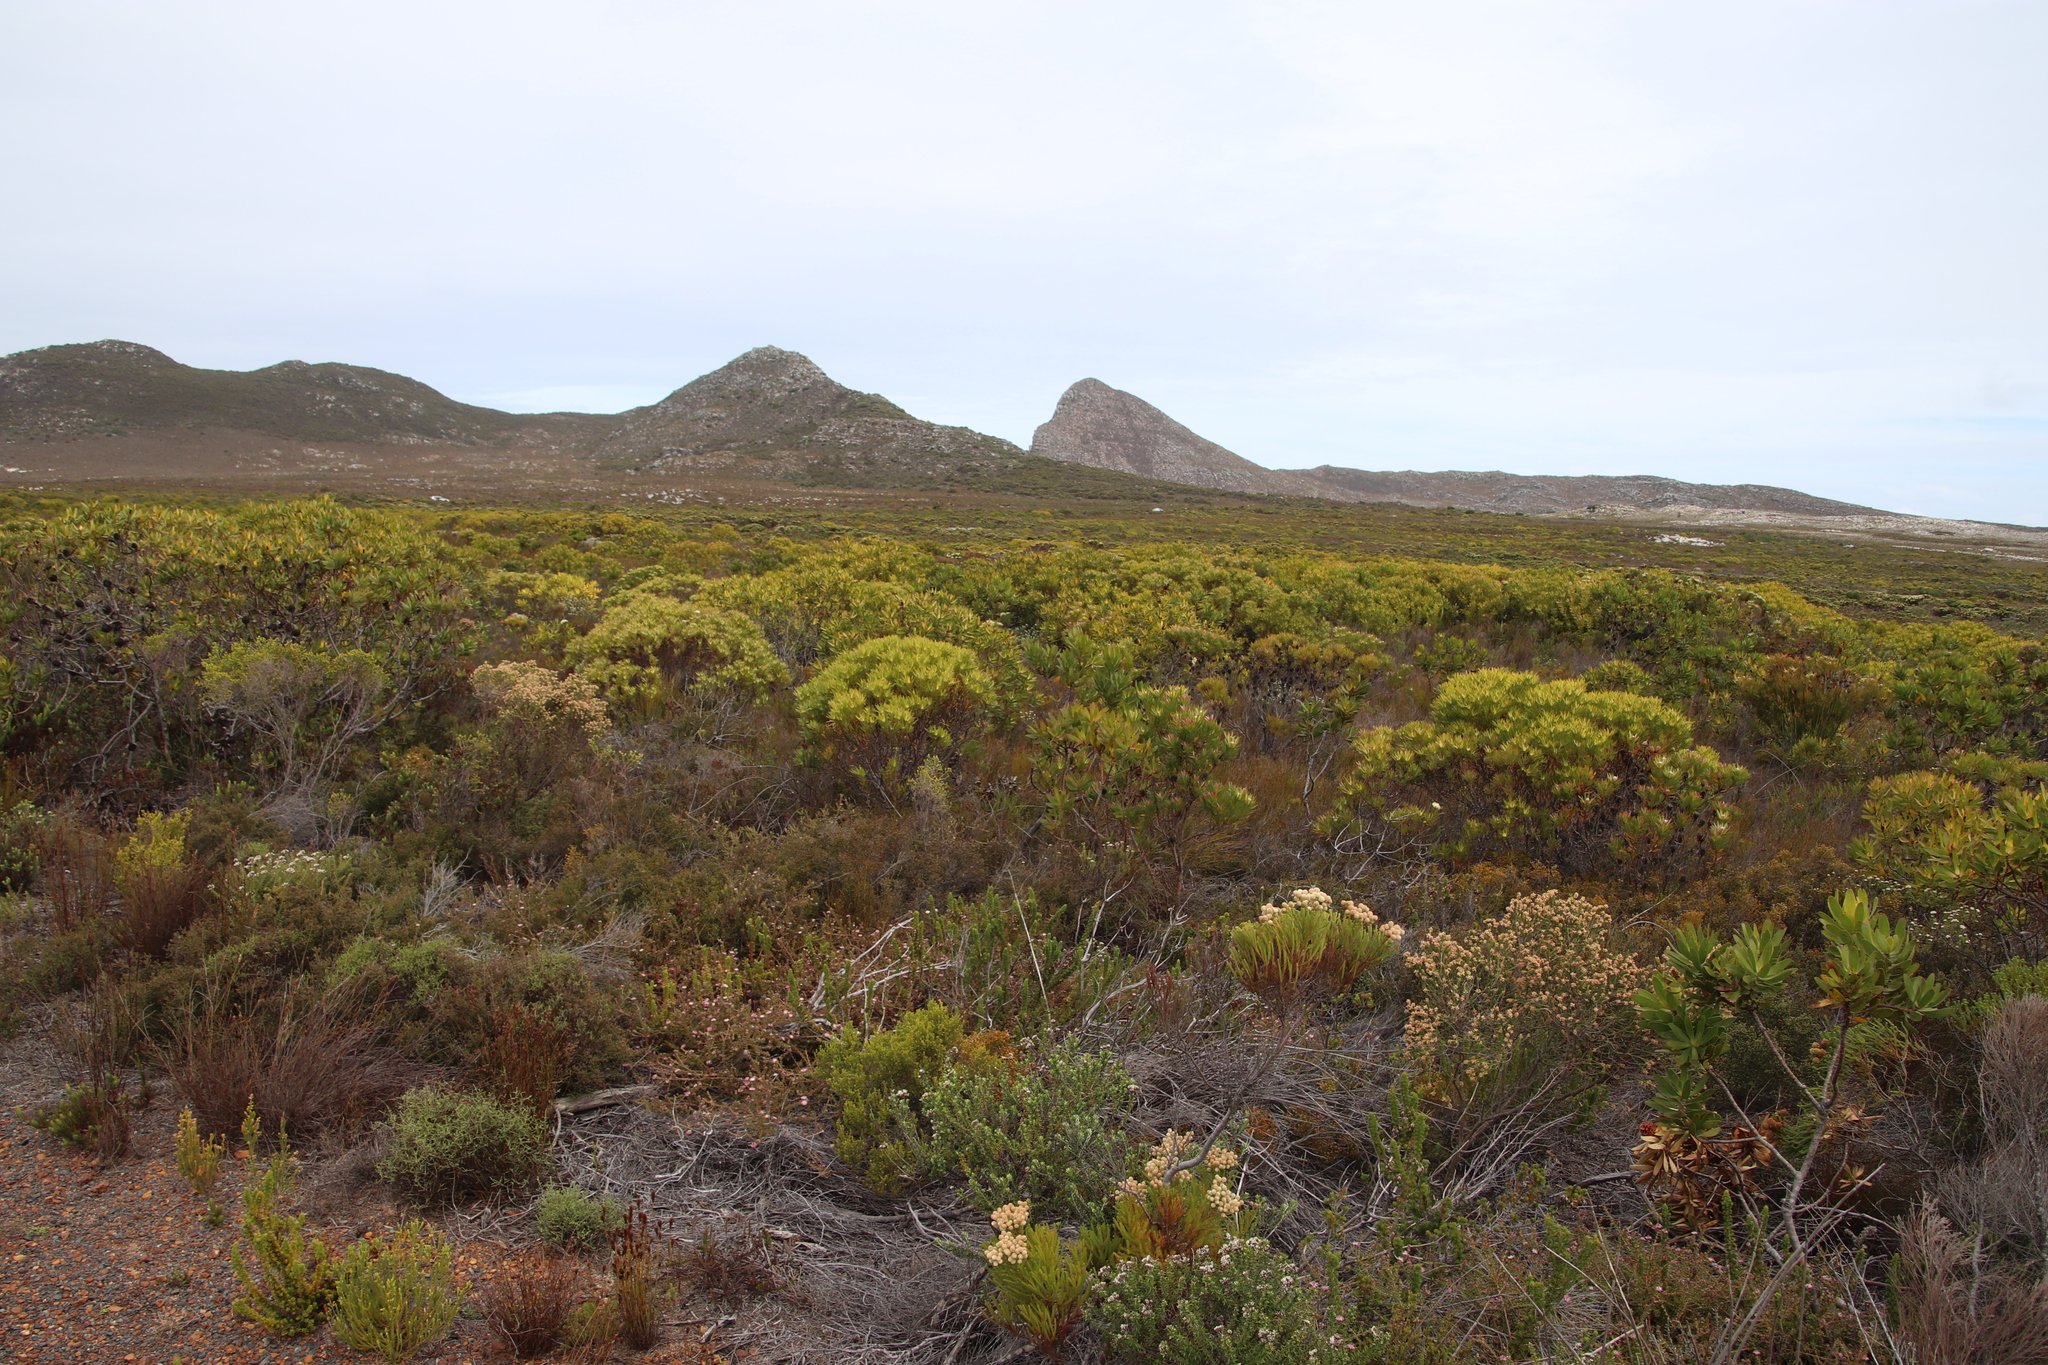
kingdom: Plantae
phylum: Tracheophyta
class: Magnoliopsida
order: Proteales
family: Proteaceae
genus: Leucadendron
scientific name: Leucadendron xanthoconus
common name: Sickle-leaf conebush
